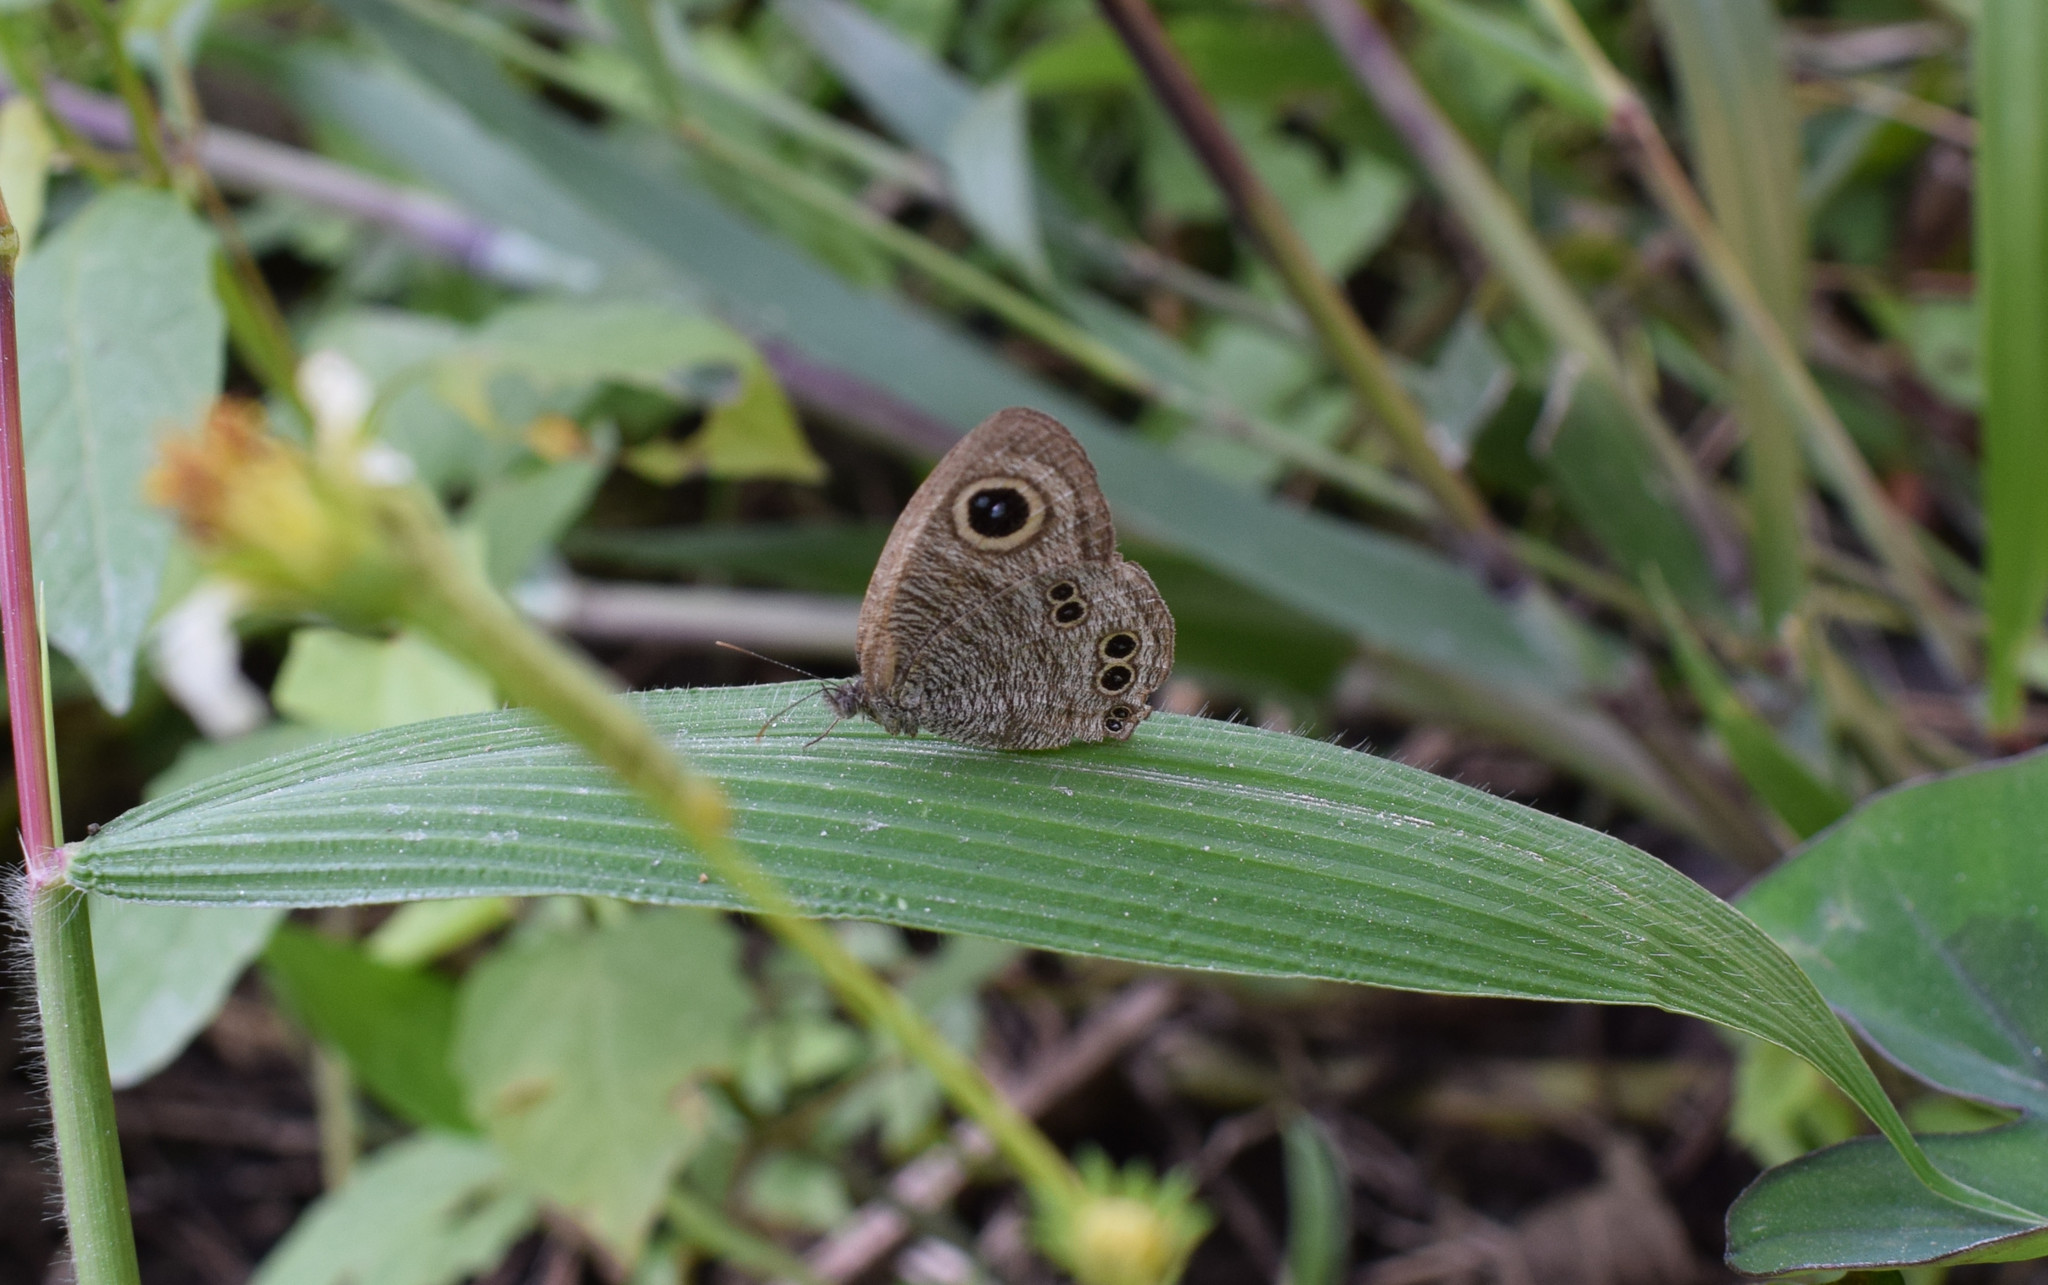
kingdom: Animalia
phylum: Arthropoda
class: Insecta
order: Lepidoptera
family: Nymphalidae
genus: Ypthima
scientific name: Ypthima baldus
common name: Common five-ring
